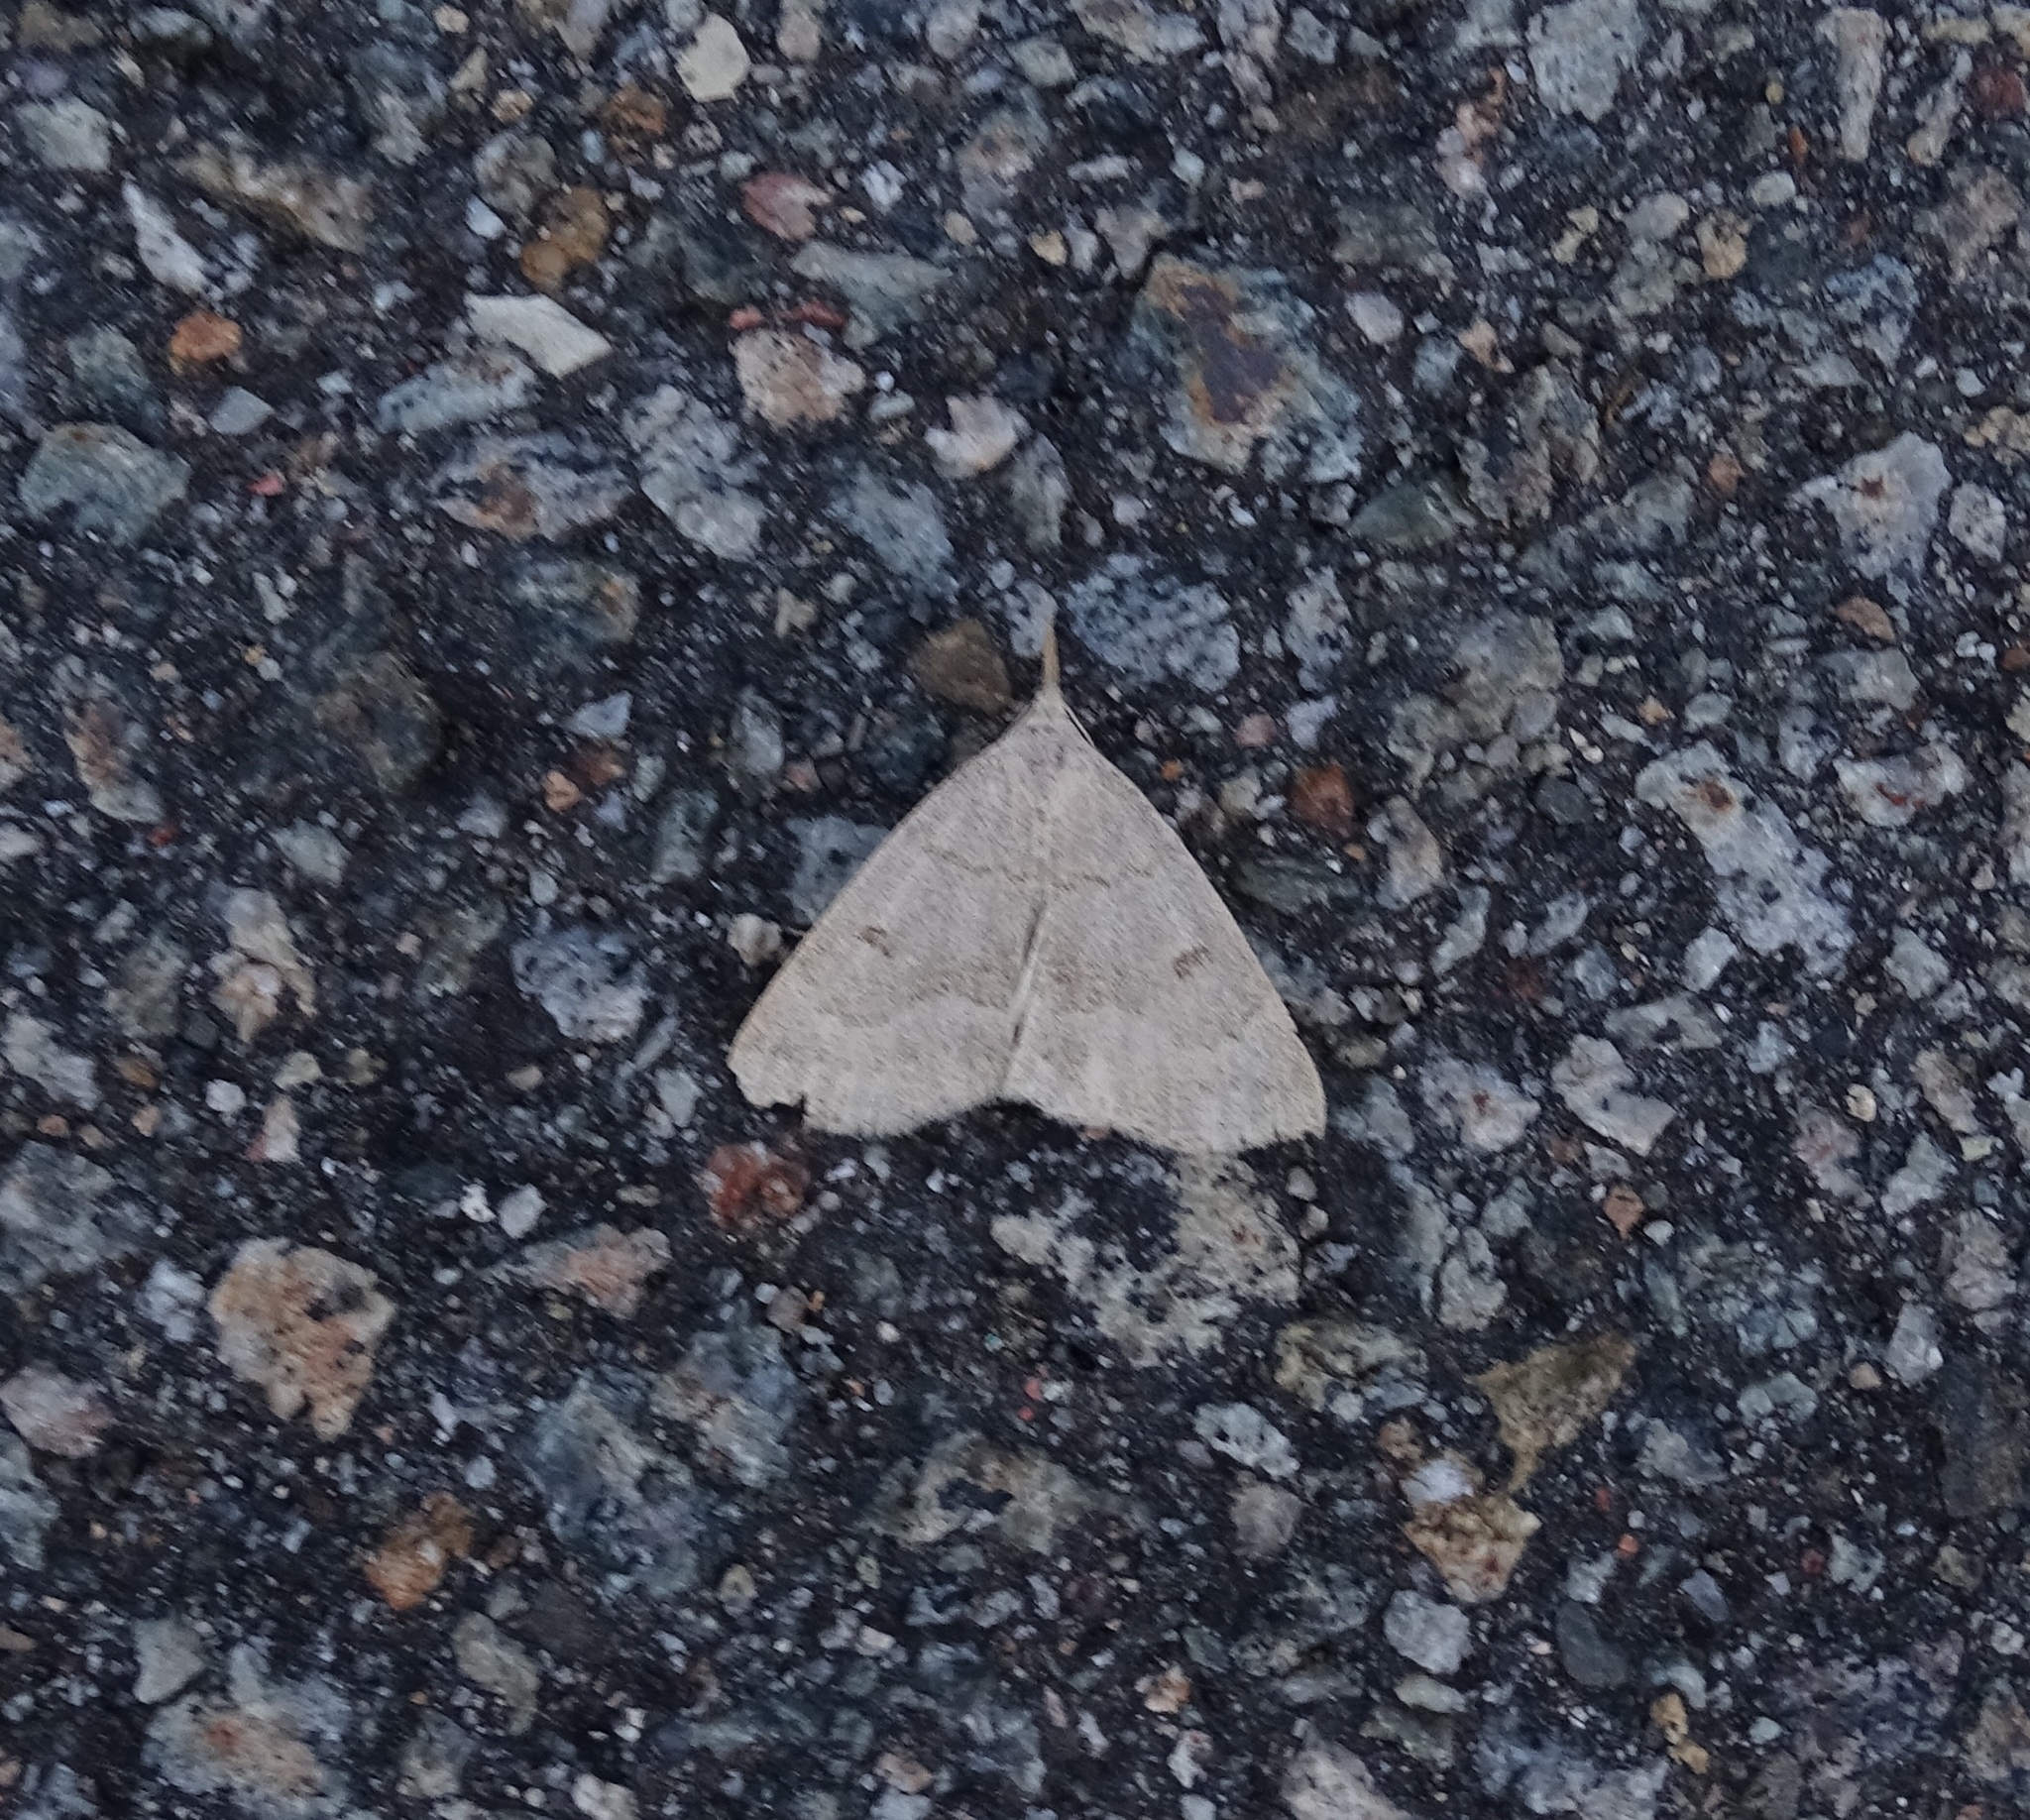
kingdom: Animalia
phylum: Arthropoda
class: Insecta
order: Lepidoptera
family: Erebidae
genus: Macrochilo
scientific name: Macrochilo morbidalis
